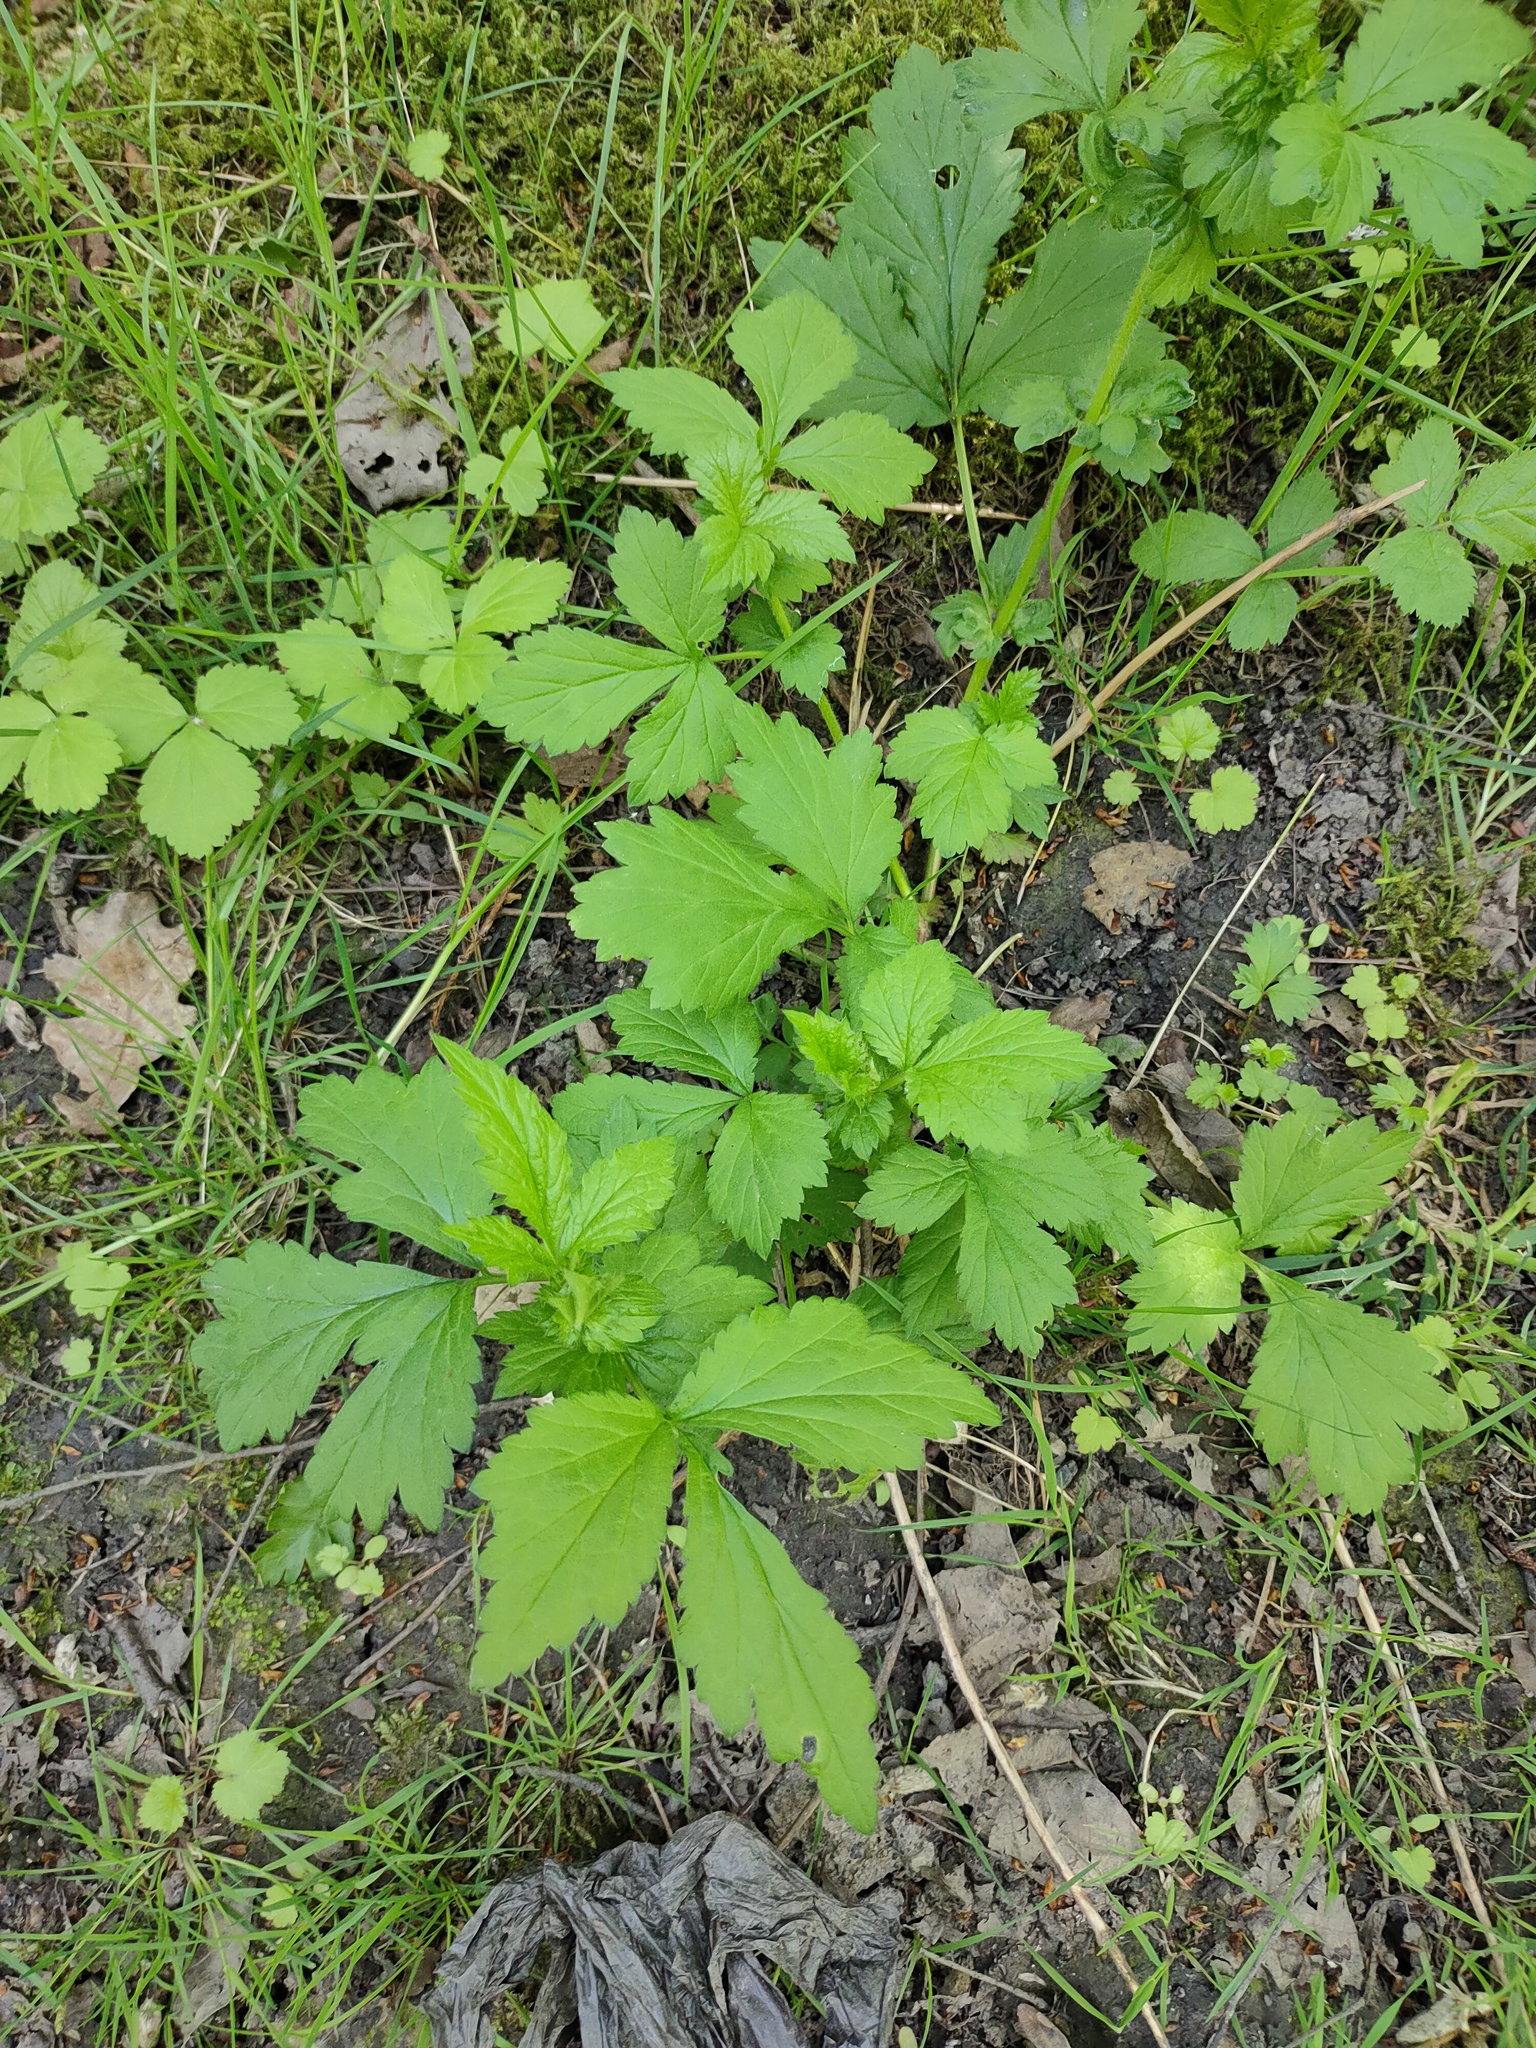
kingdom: Plantae
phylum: Tracheophyta
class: Magnoliopsida
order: Rosales
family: Rosaceae
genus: Geum
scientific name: Geum urbanum
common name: Wood avens
